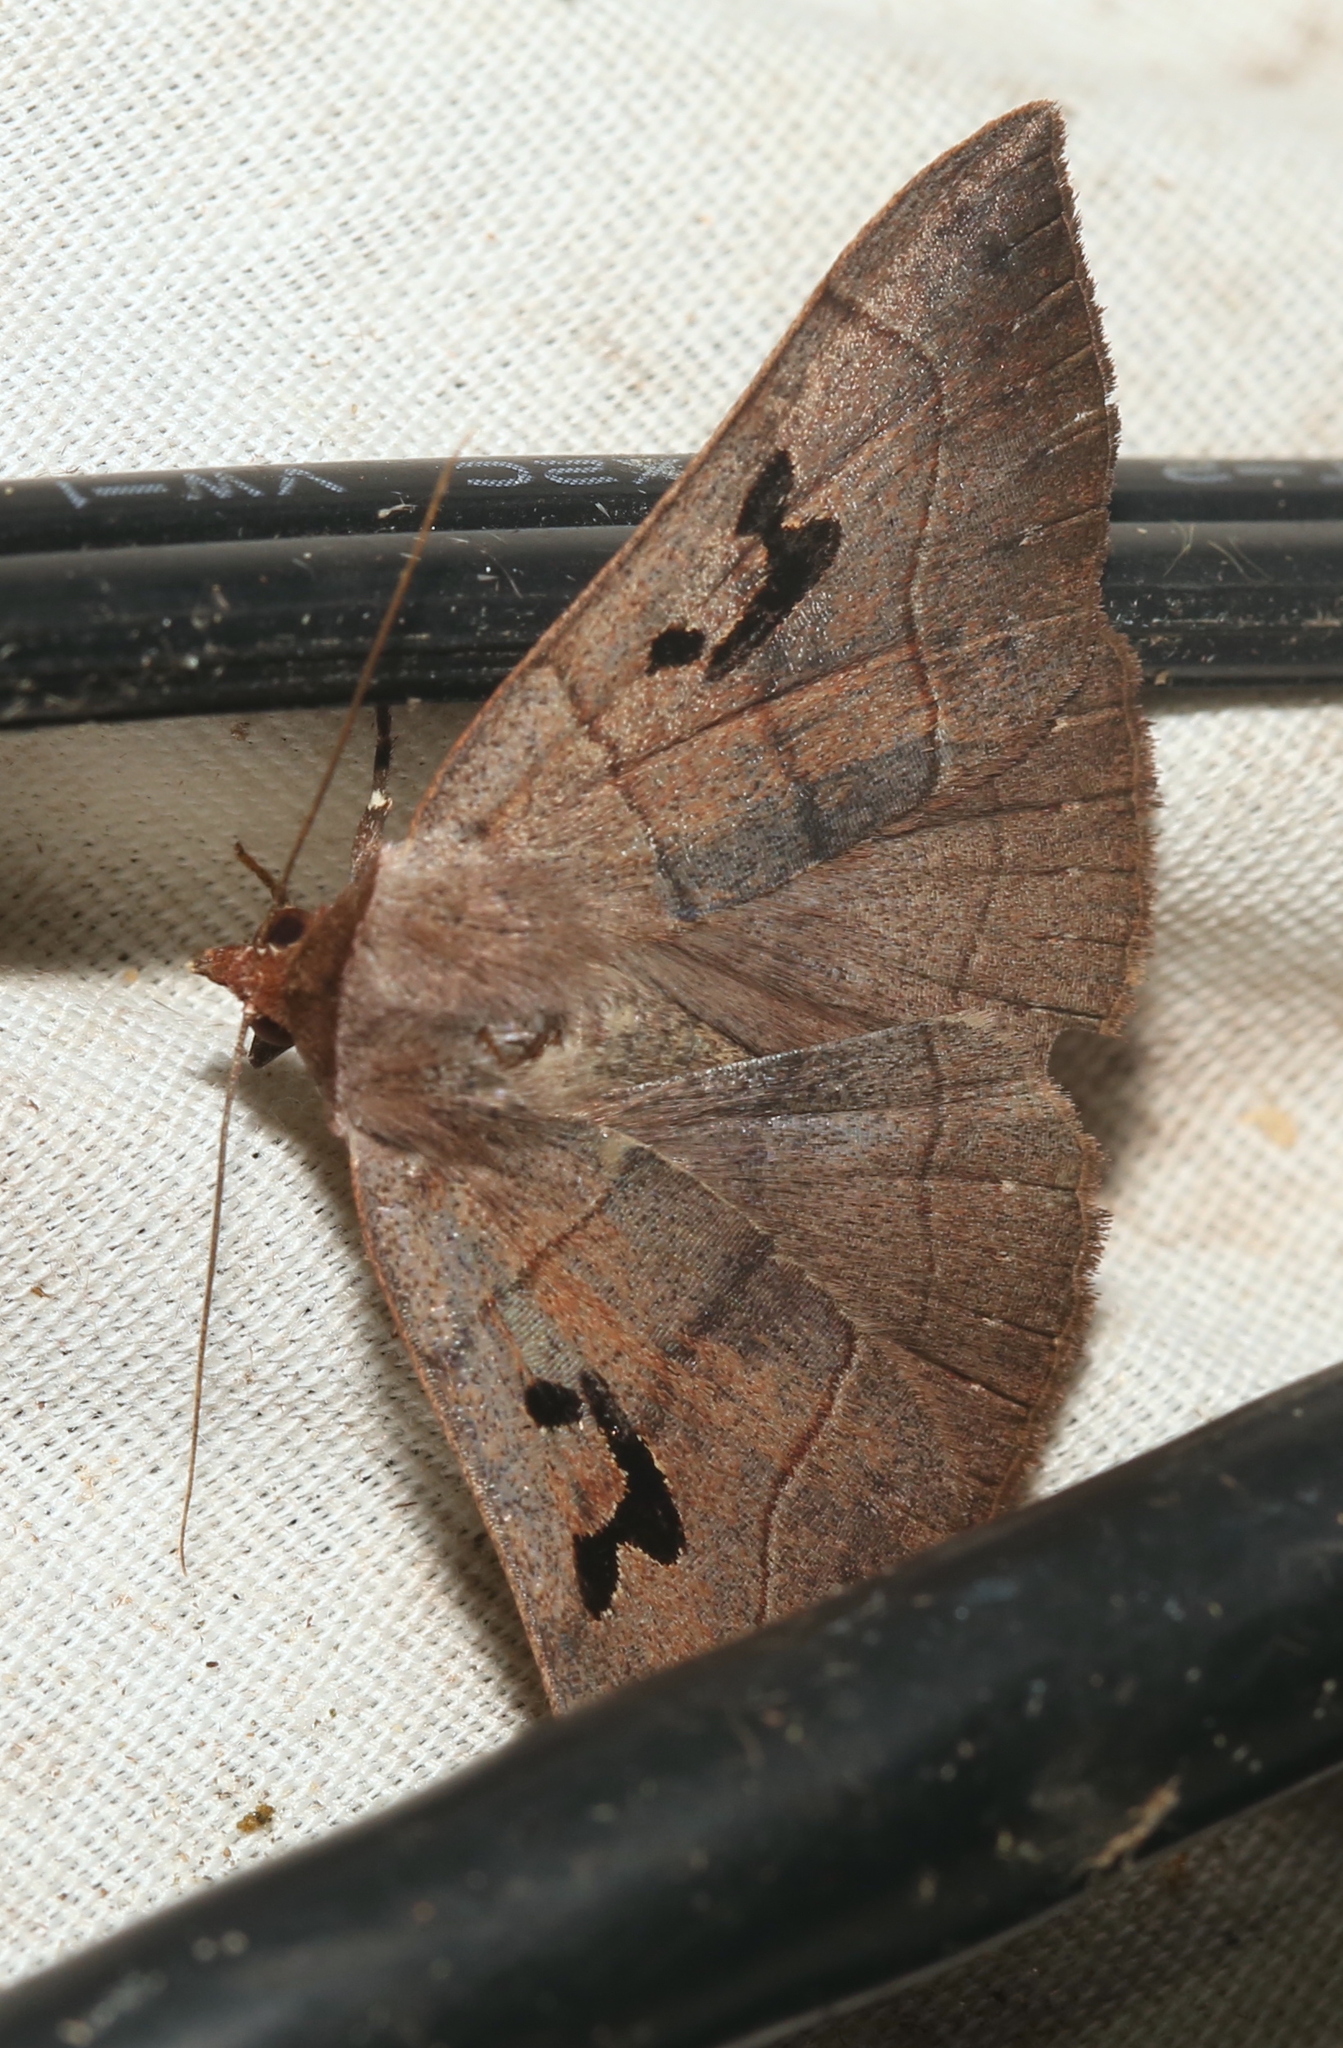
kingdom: Animalia
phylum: Arthropoda
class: Insecta
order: Lepidoptera
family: Erebidae
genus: Panopoda
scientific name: Panopoda carneicosta
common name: Brown panopoda moth
